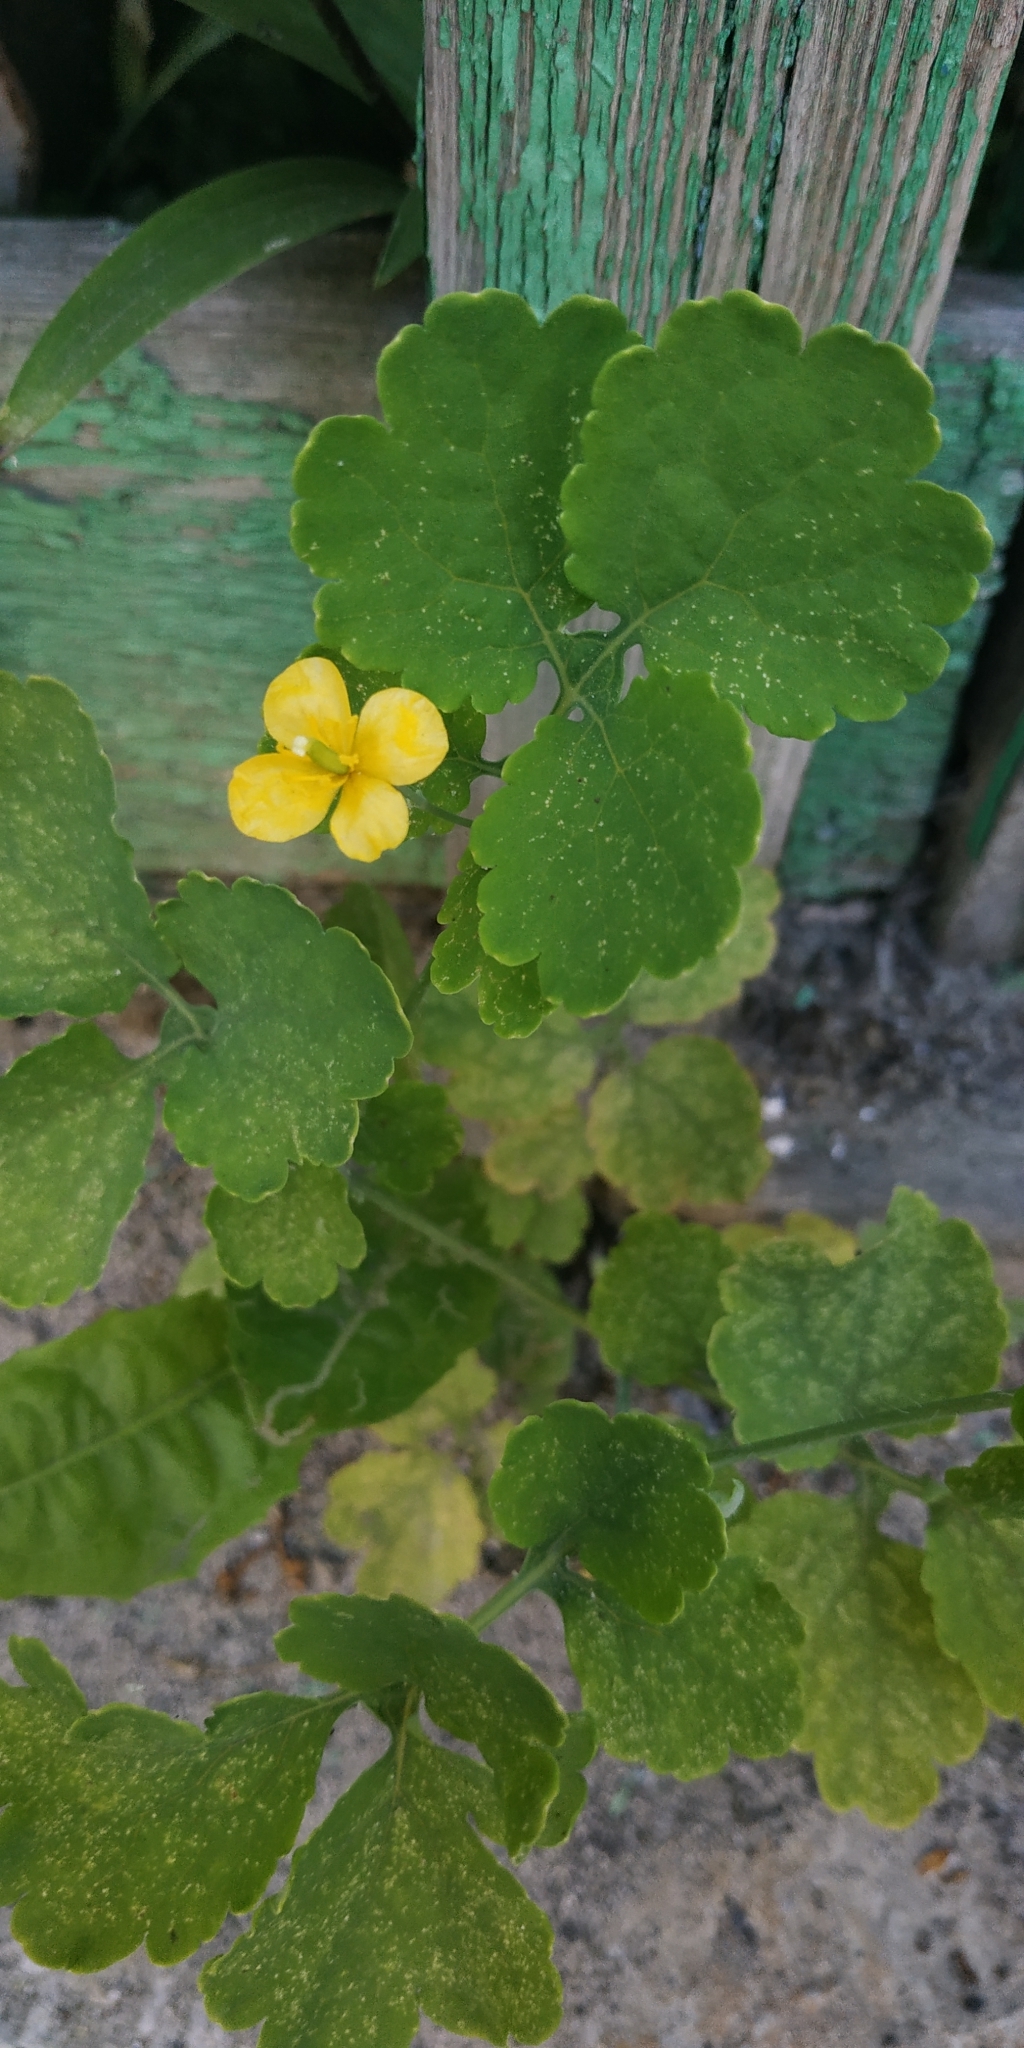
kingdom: Plantae
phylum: Tracheophyta
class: Magnoliopsida
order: Ranunculales
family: Papaveraceae
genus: Chelidonium
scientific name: Chelidonium majus
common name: Greater celandine
